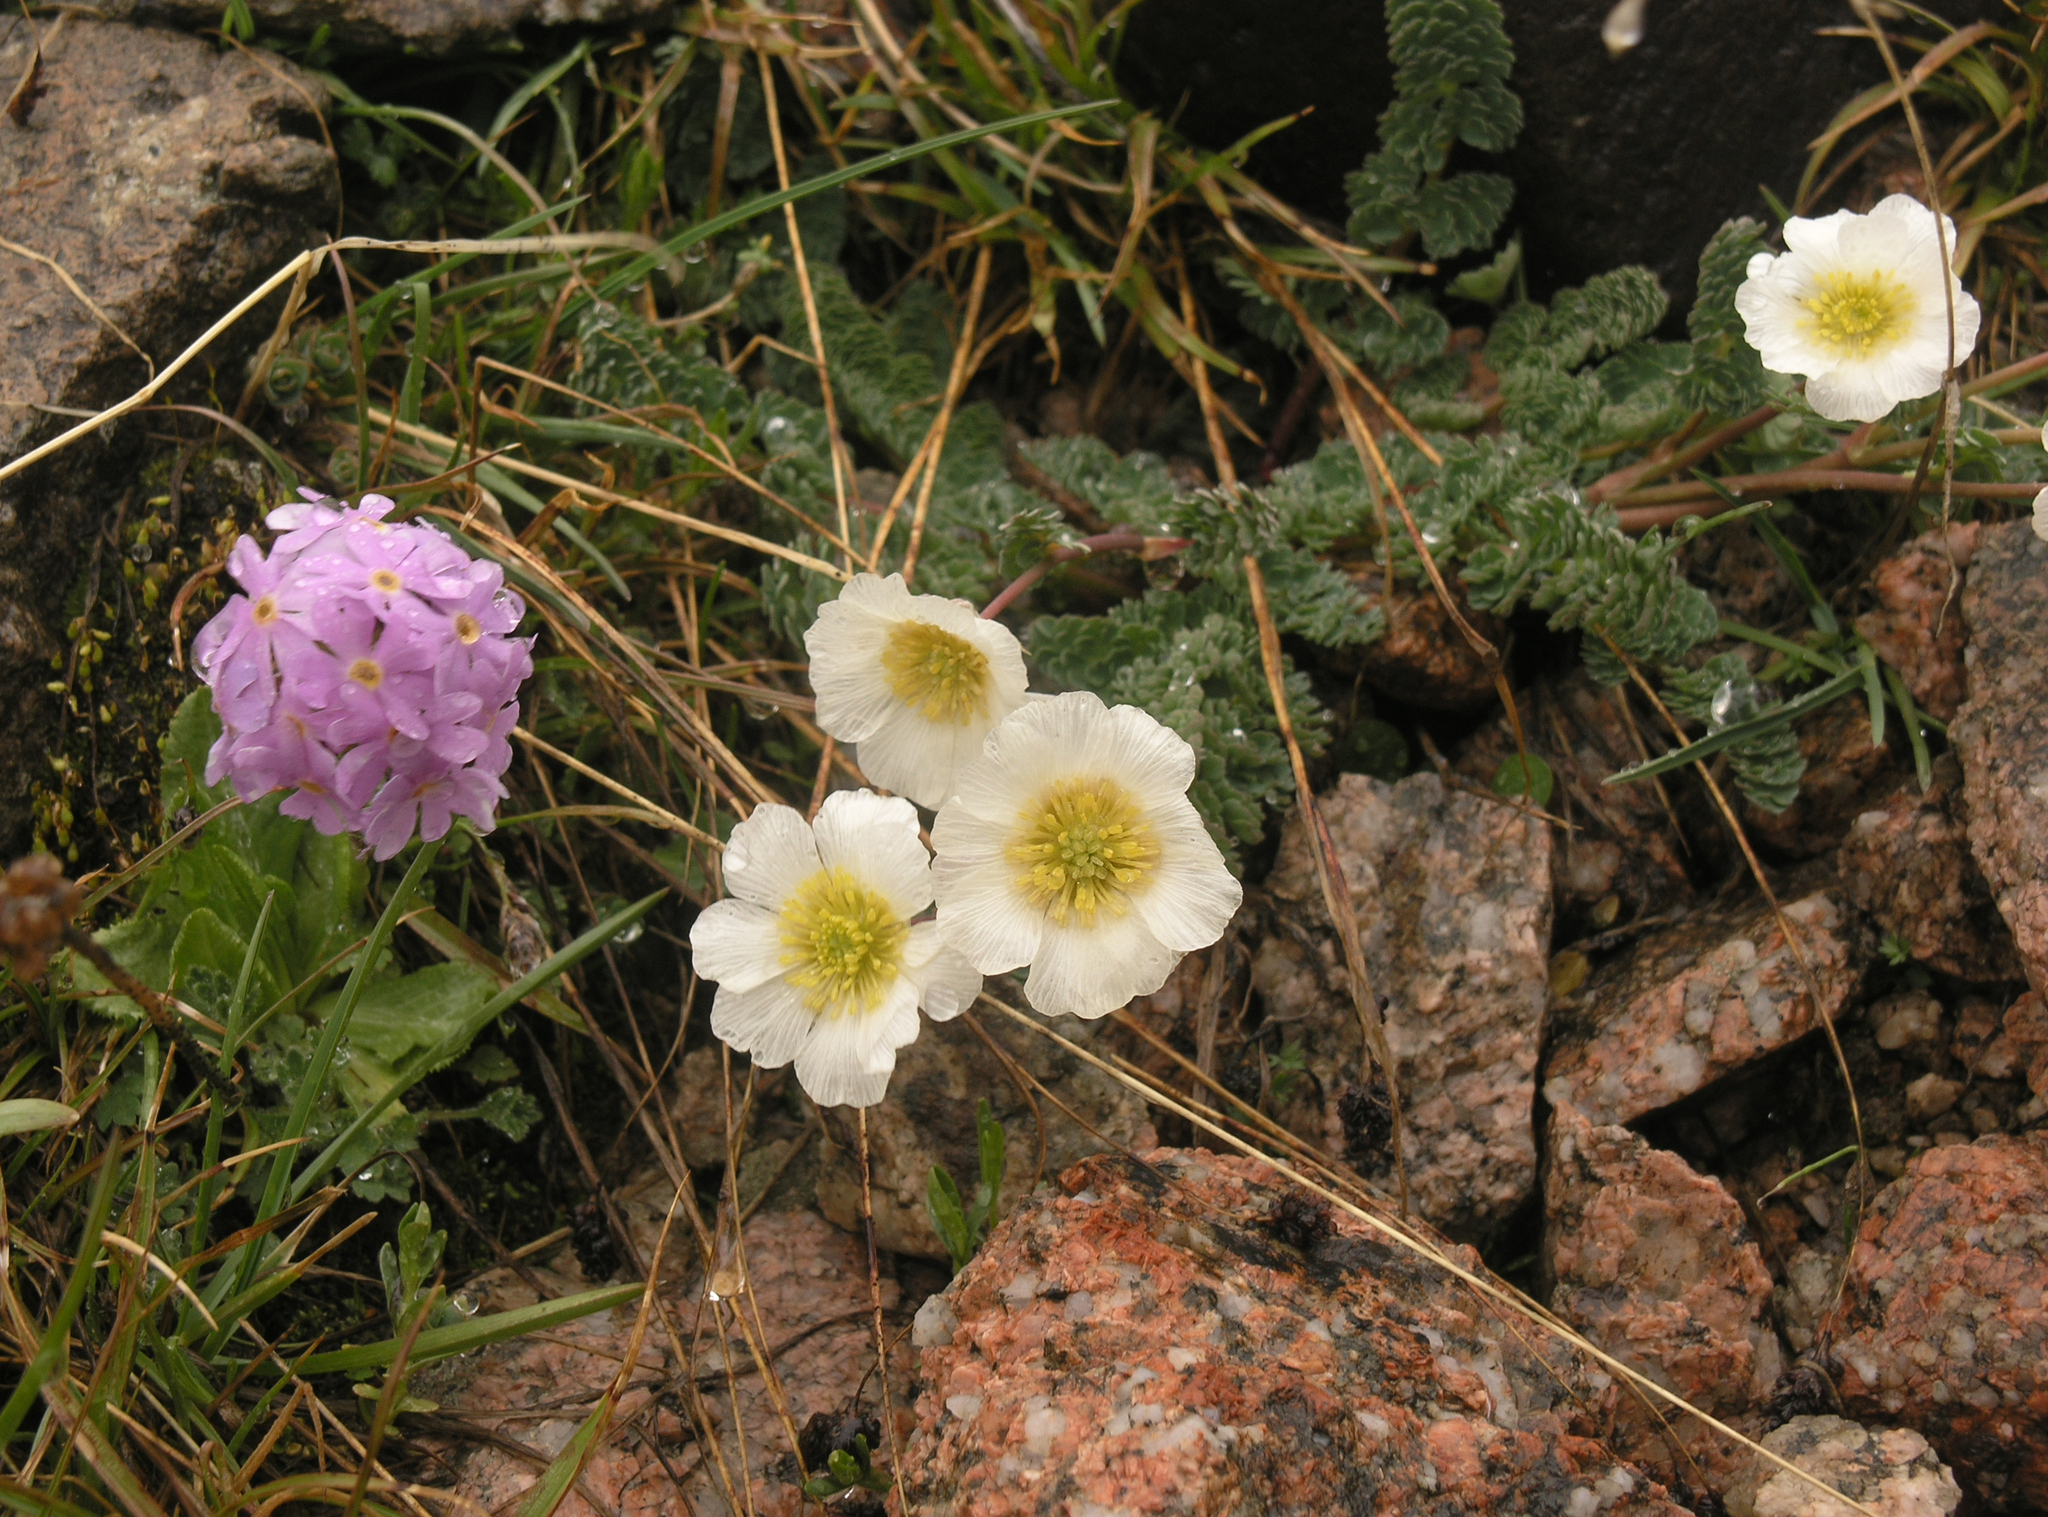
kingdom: Plantae
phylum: Tracheophyta
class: Magnoliopsida
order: Ranunculales
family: Ranunculaceae
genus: Callianthemum
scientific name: Callianthemum alatavicum
